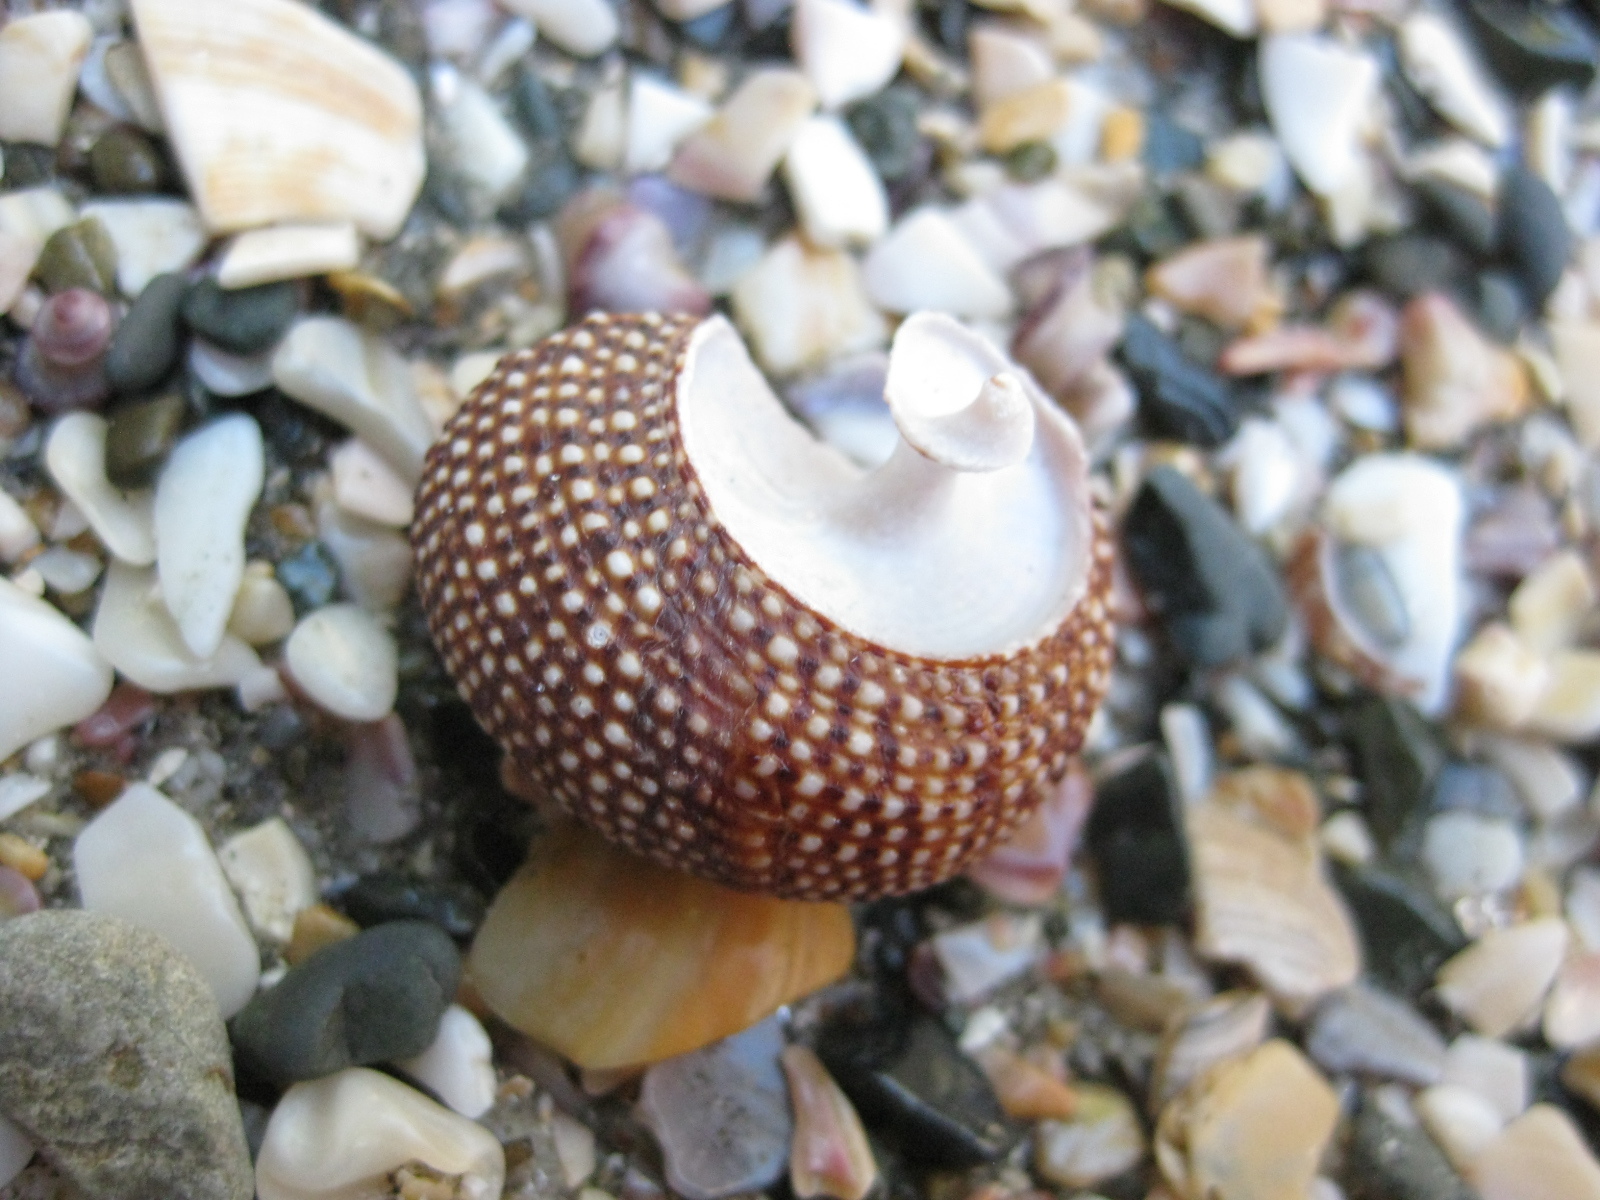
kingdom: Animalia
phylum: Mollusca
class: Gastropoda
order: Trochida
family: Calliostomatidae
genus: Maurea
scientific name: Maurea punctulata
